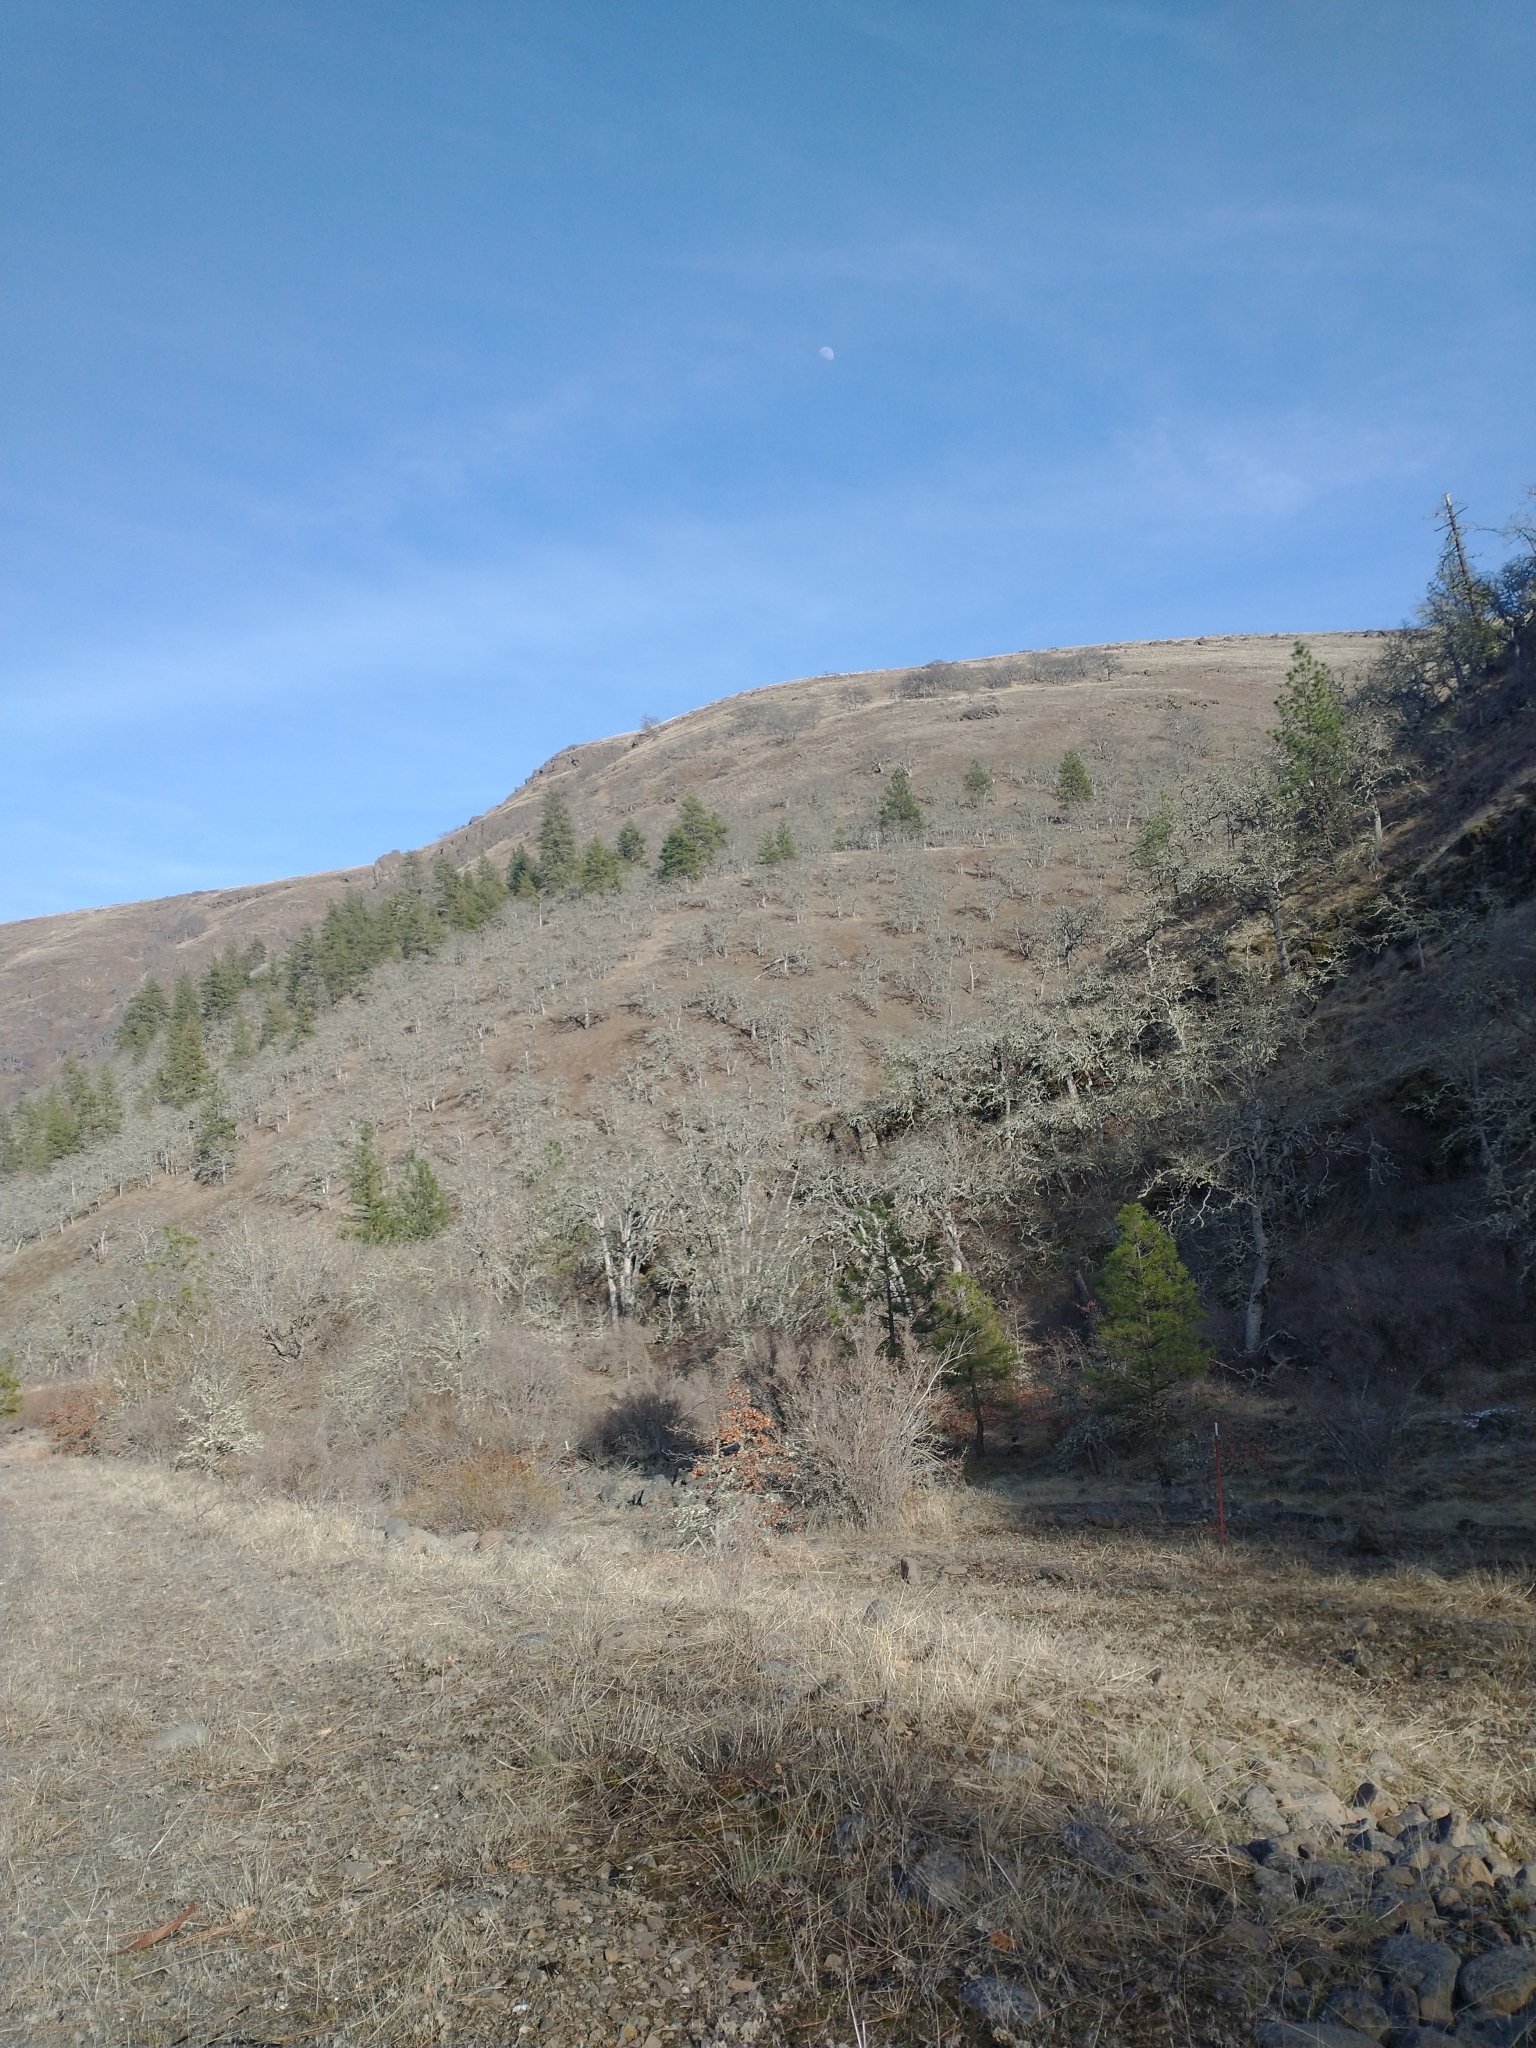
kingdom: Plantae
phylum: Tracheophyta
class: Magnoliopsida
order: Fagales
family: Fagaceae
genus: Quercus
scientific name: Quercus garryana
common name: Garry oak
